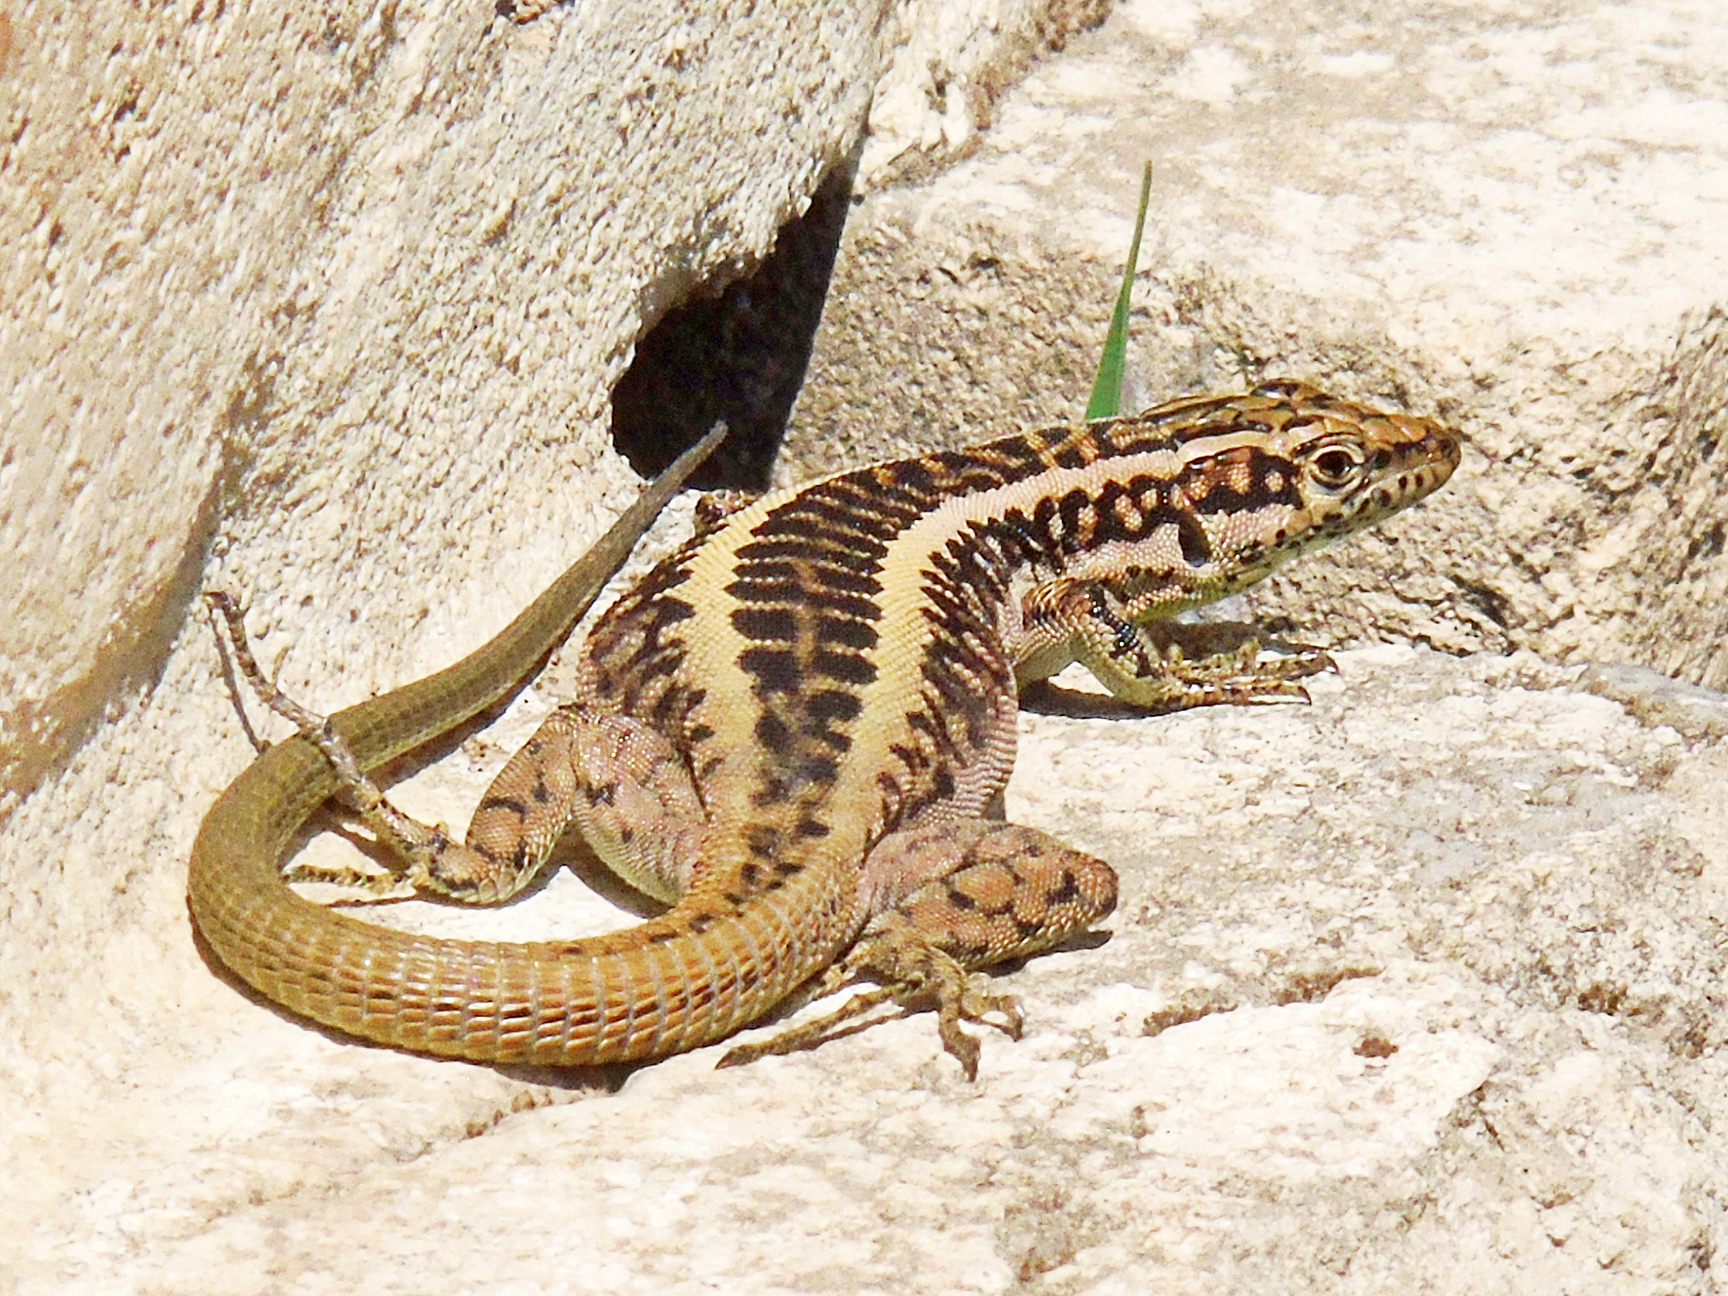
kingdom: Animalia
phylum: Chordata
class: Squamata
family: Lacertidae
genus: Apathya
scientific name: Apathya cappadocica
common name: Anatolian lizard
